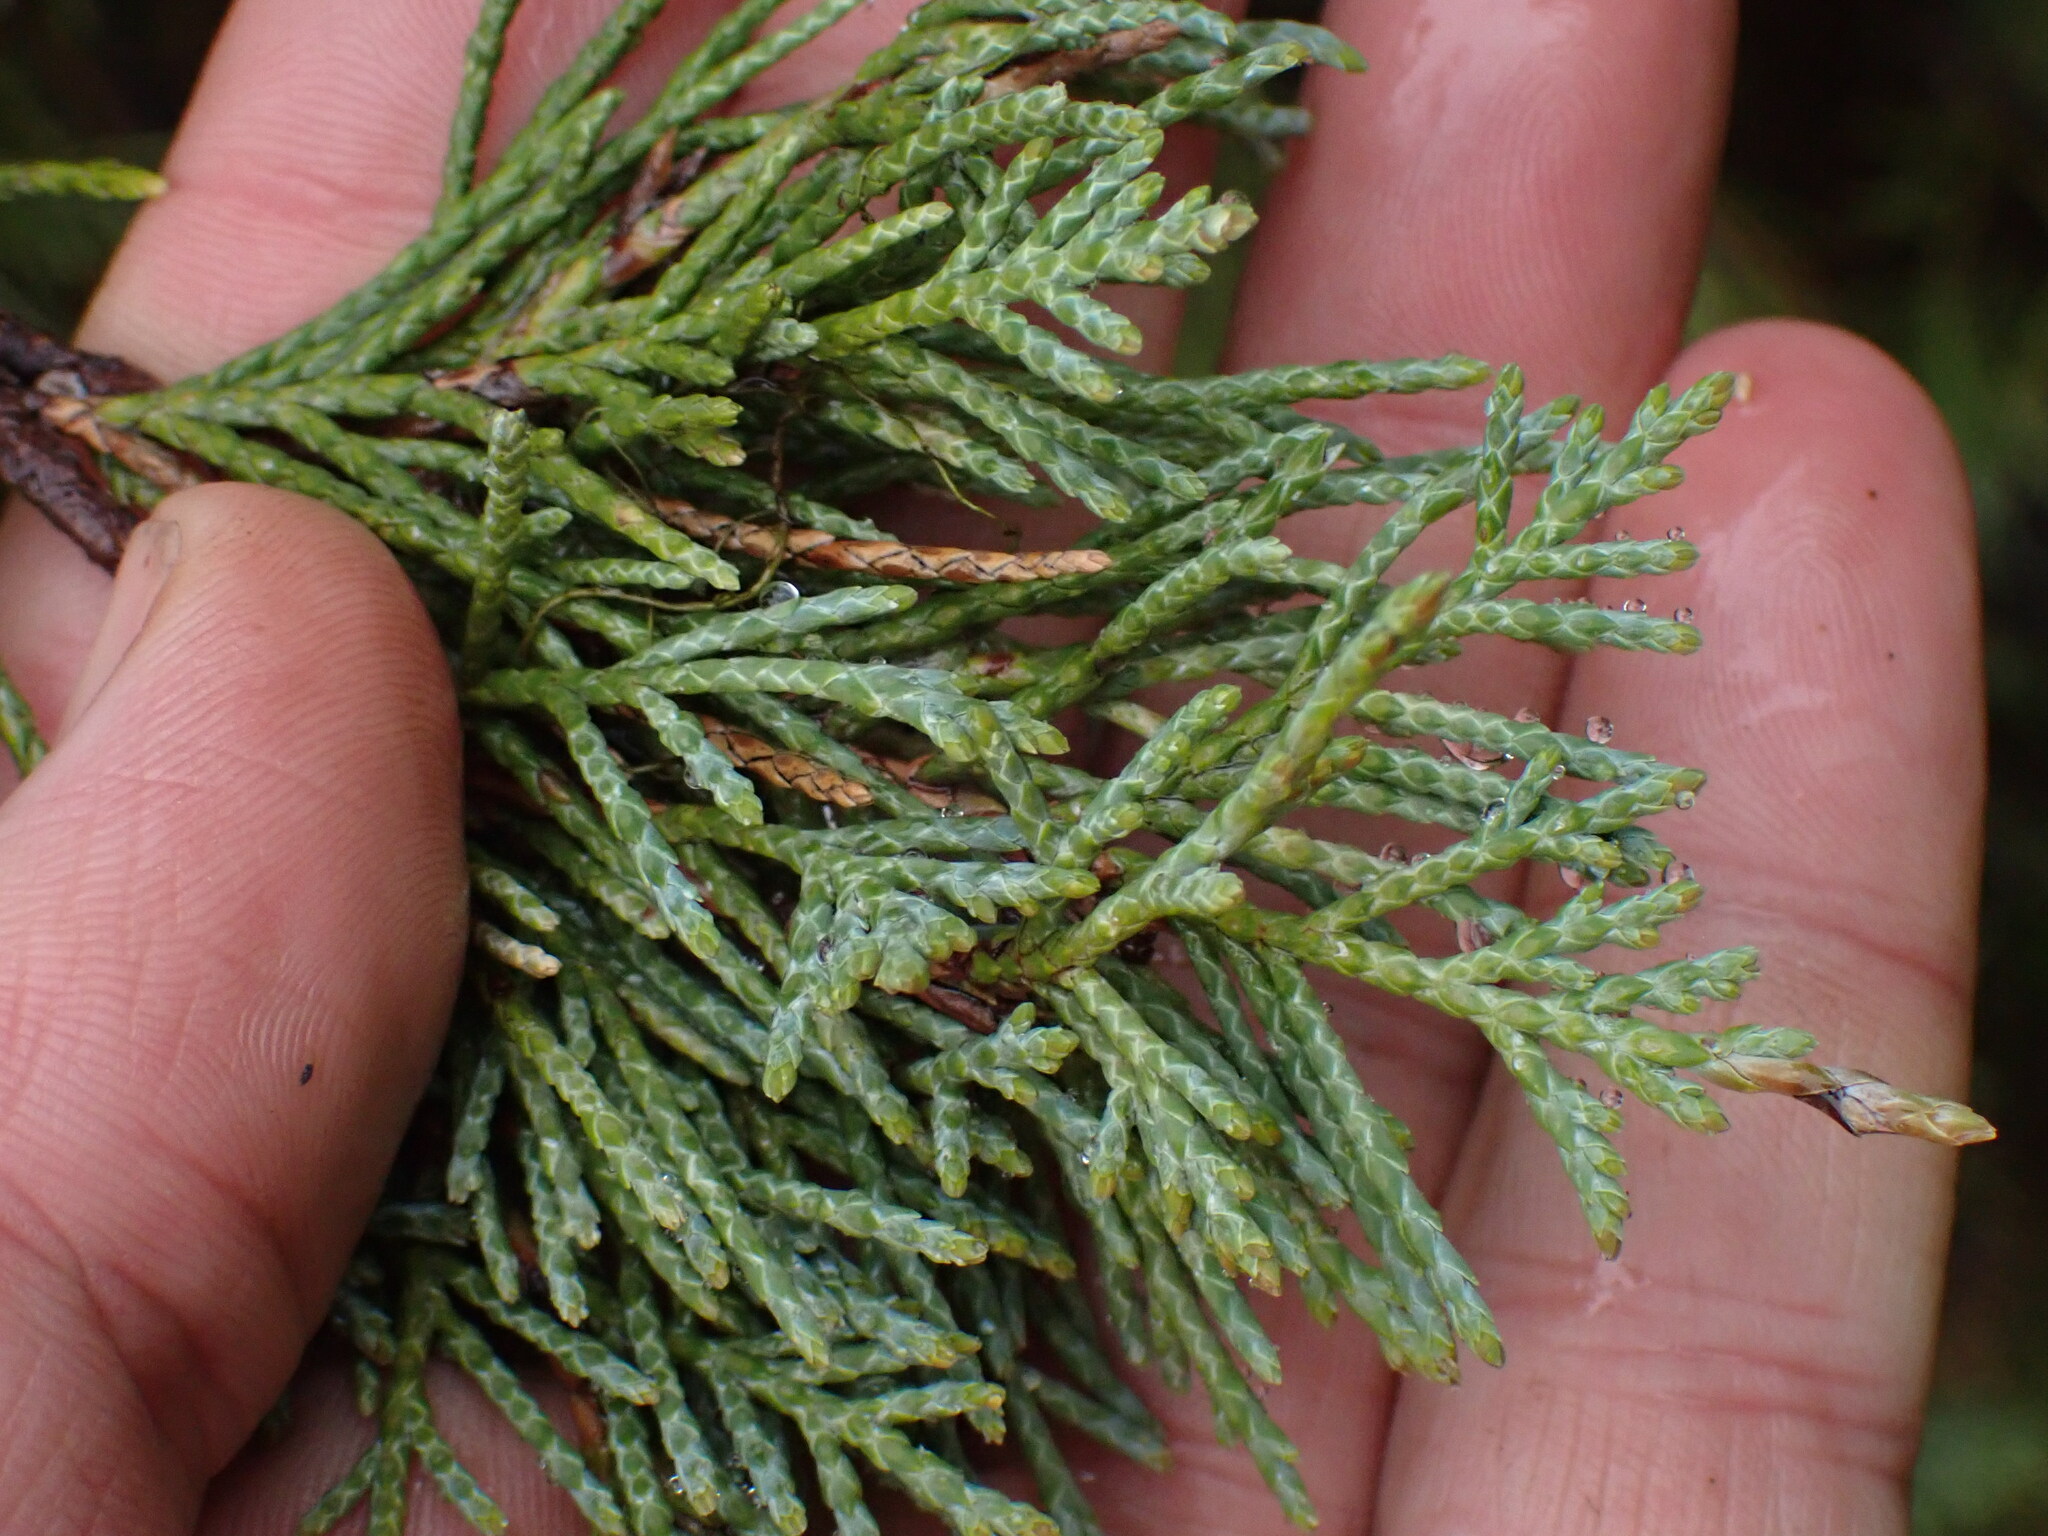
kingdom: Plantae
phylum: Tracheophyta
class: Pinopsida
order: Pinales
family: Cupressaceae
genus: Juniperus
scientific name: Juniperus scopulorum
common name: Rocky mountain juniper
